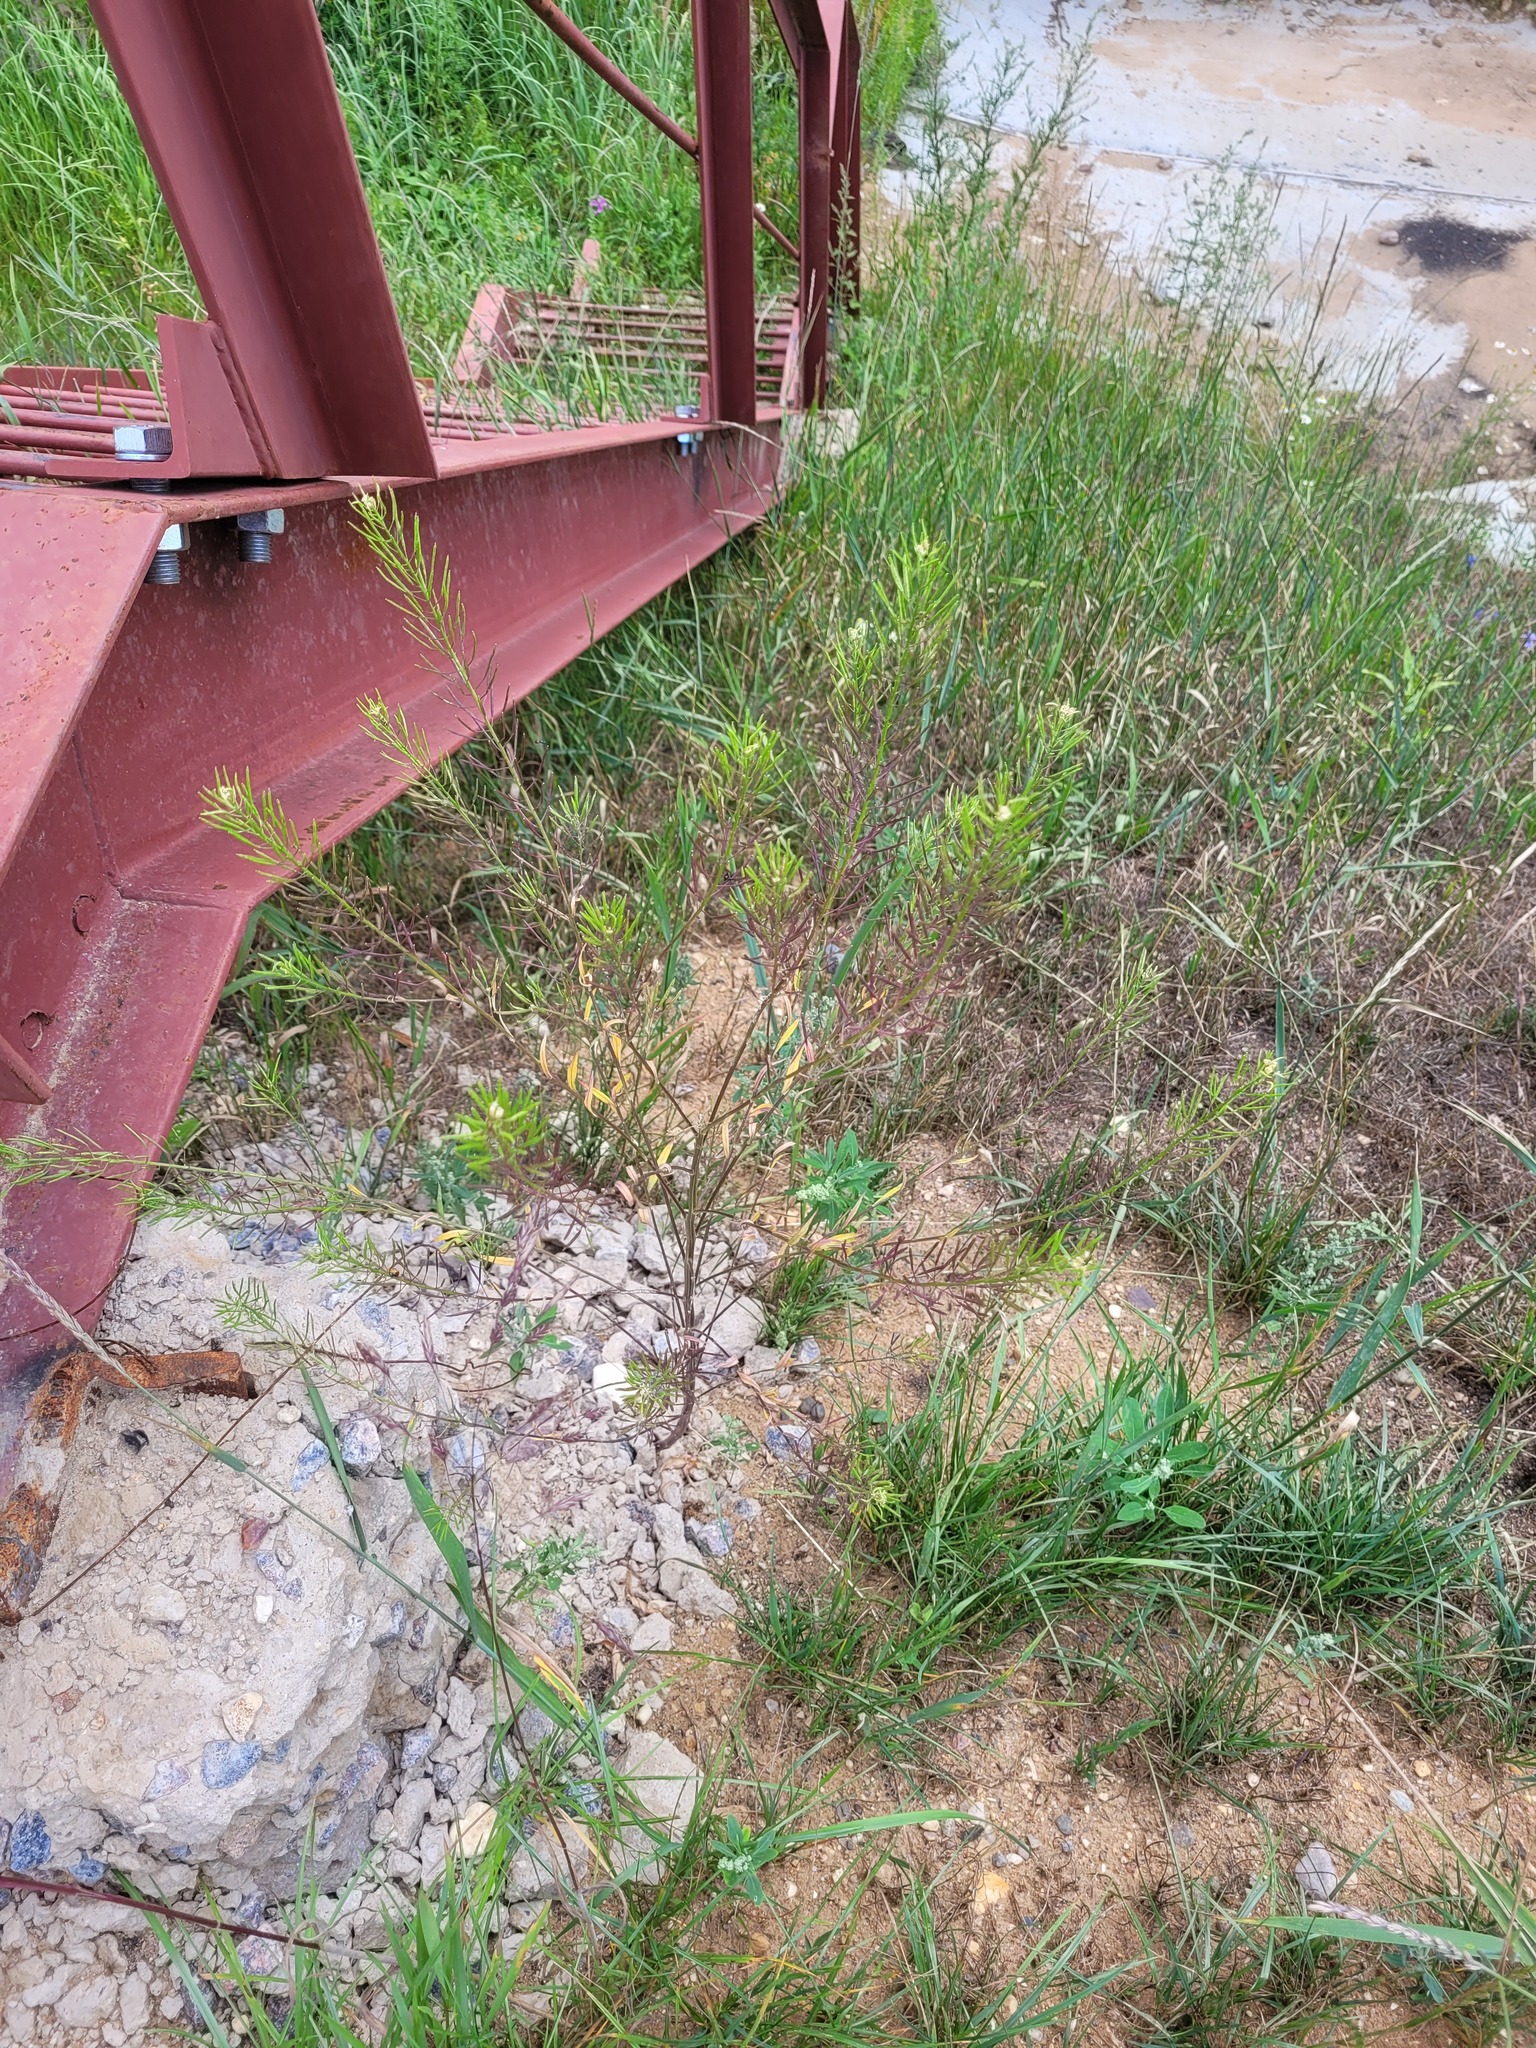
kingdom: Plantae
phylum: Tracheophyta
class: Magnoliopsida
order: Brassicales
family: Brassicaceae
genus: Erysimum
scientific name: Erysimum cheiranthoides
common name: Treacle mustard
